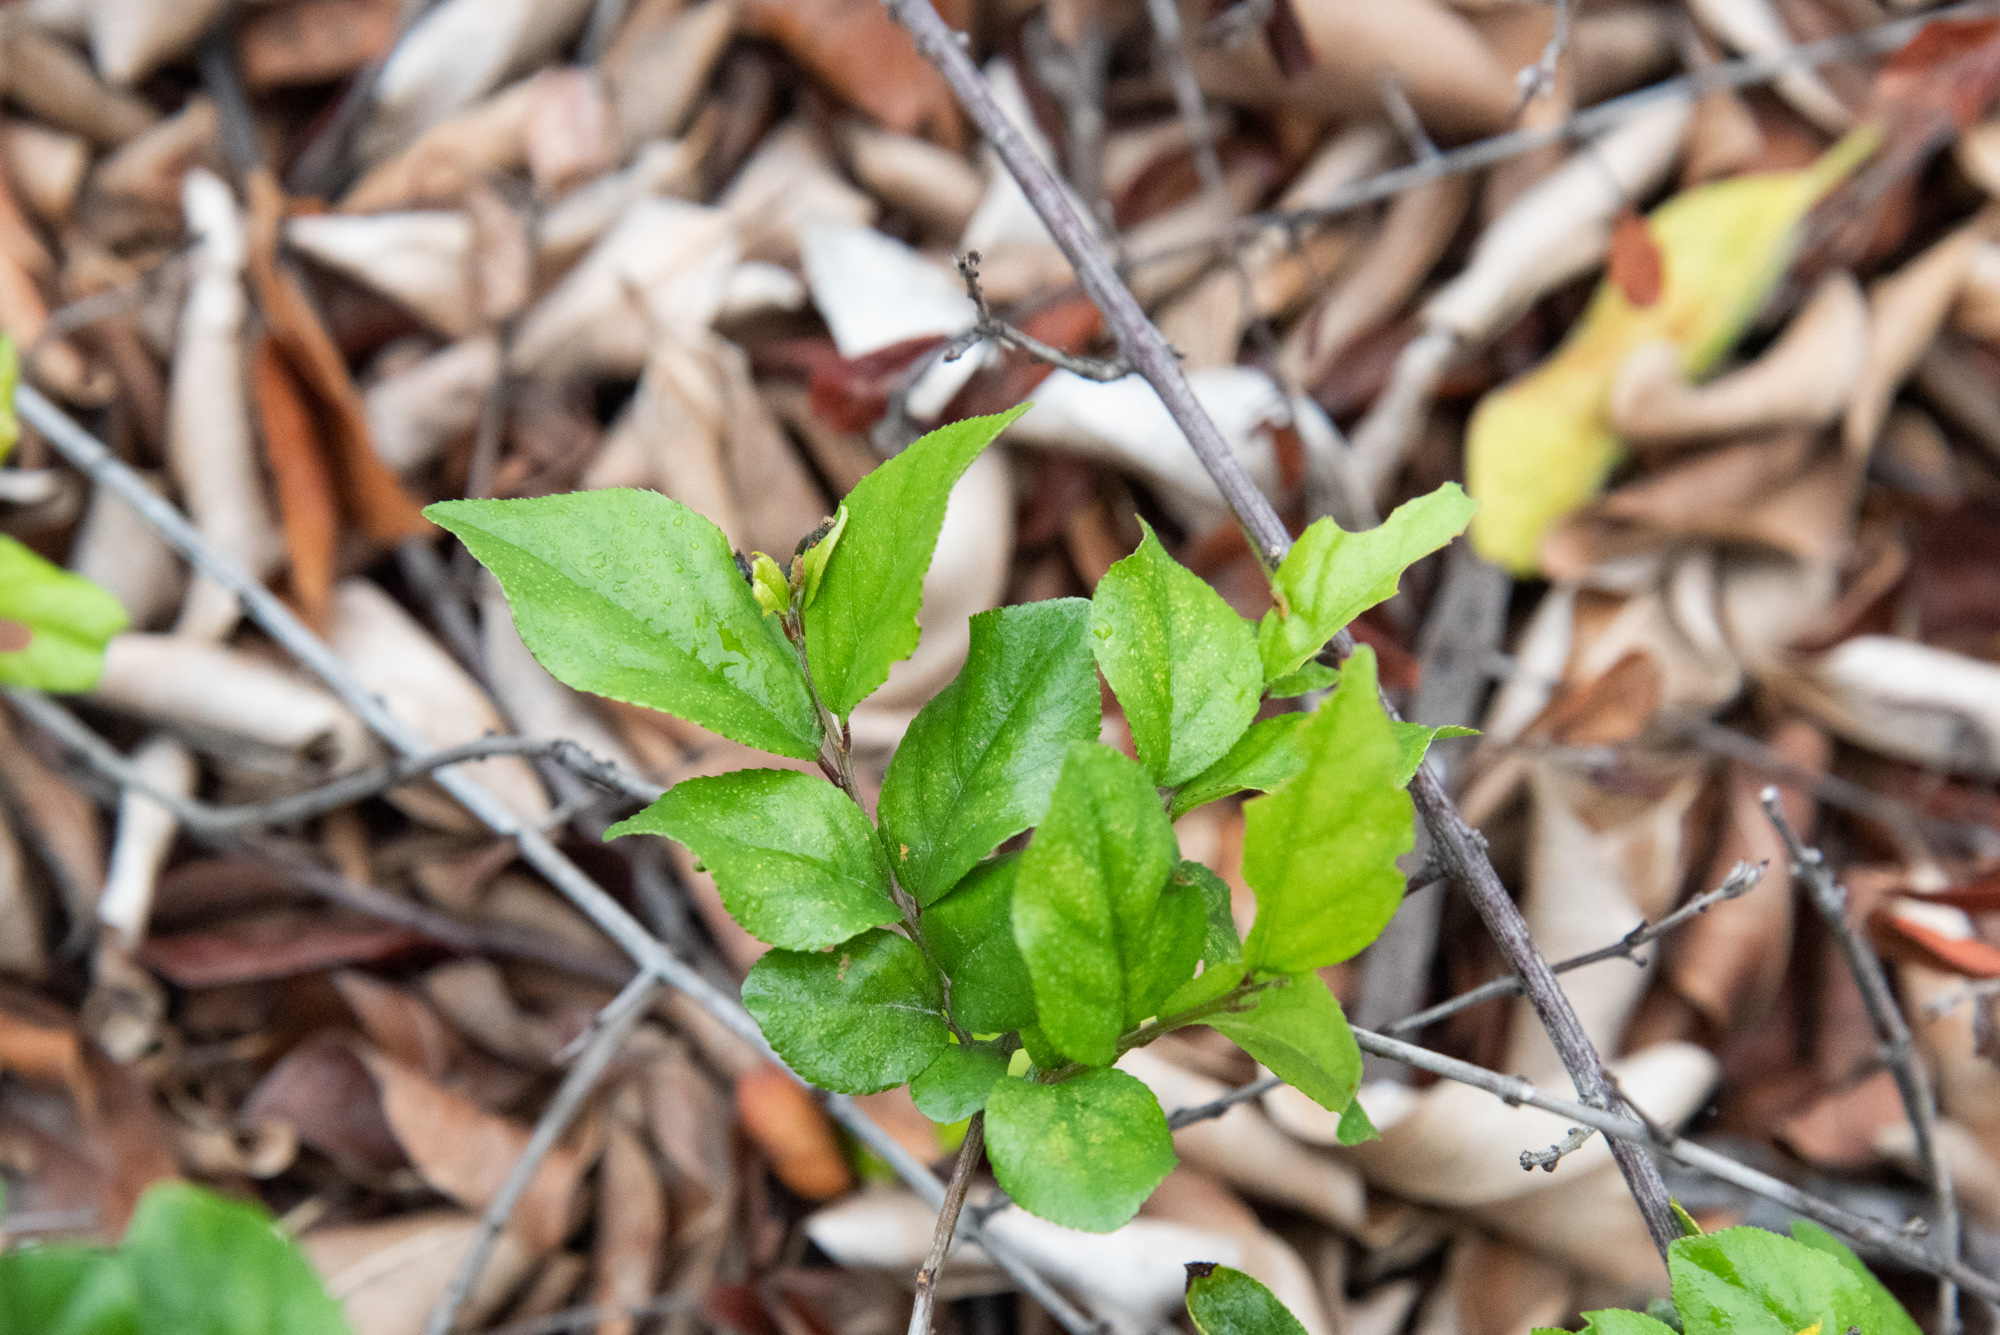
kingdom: Plantae
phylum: Tracheophyta
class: Magnoliopsida
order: Rosales
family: Rhamnaceae
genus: Sageretia
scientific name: Sageretia thea
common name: Pauper's-tea
